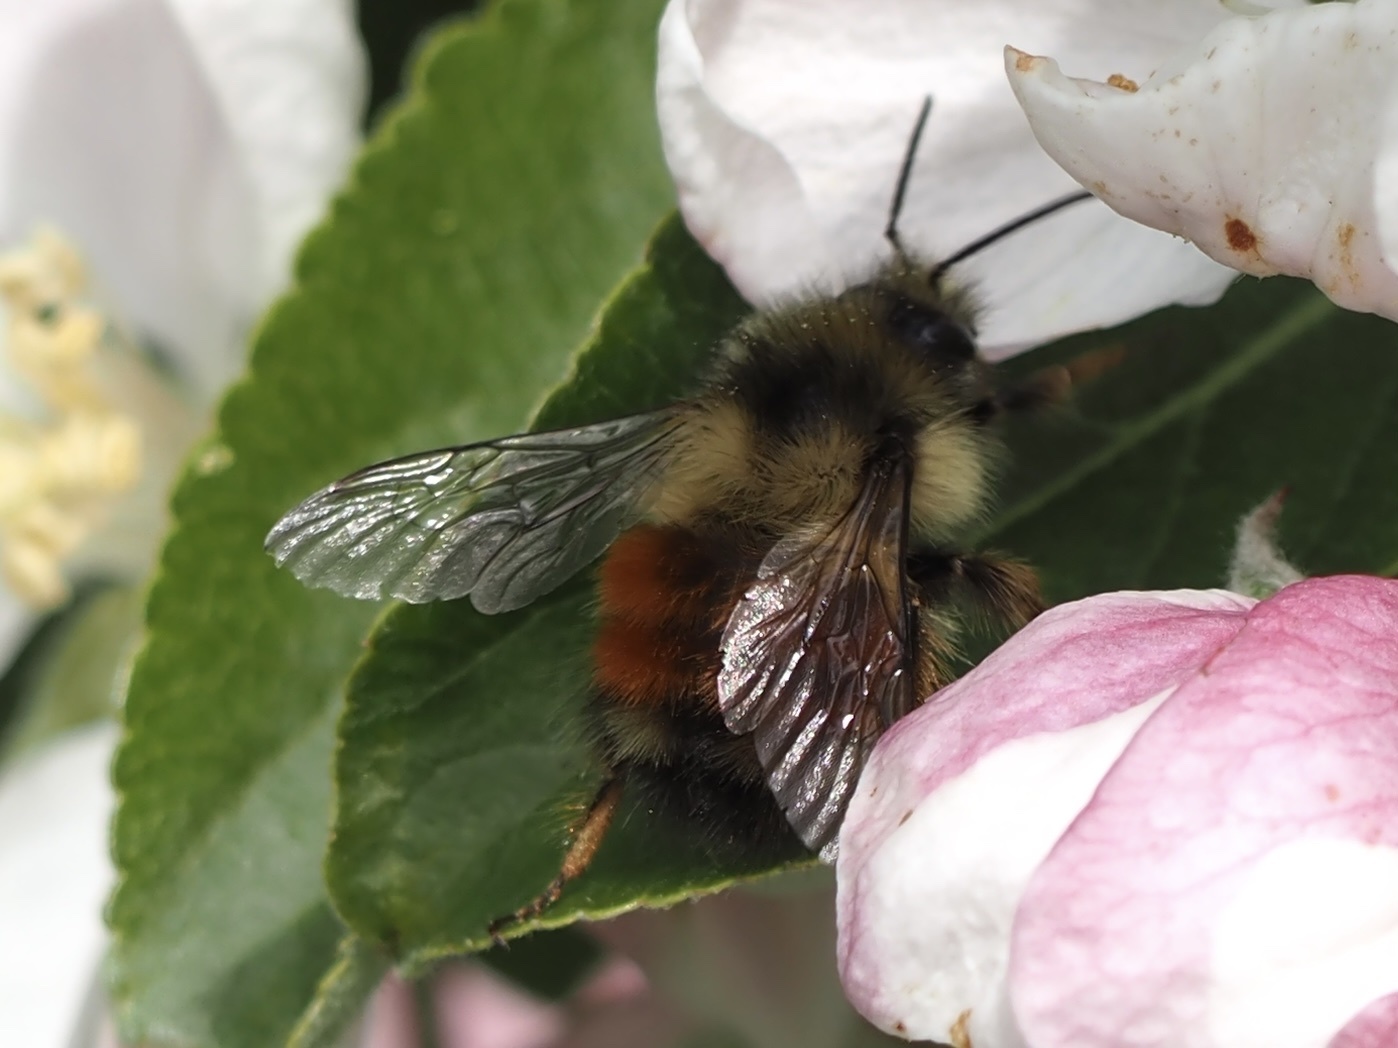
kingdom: Animalia
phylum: Arthropoda
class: Insecta
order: Hymenoptera
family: Apidae
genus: Bombus
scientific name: Bombus melanopygus
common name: Black tail bumble bee
